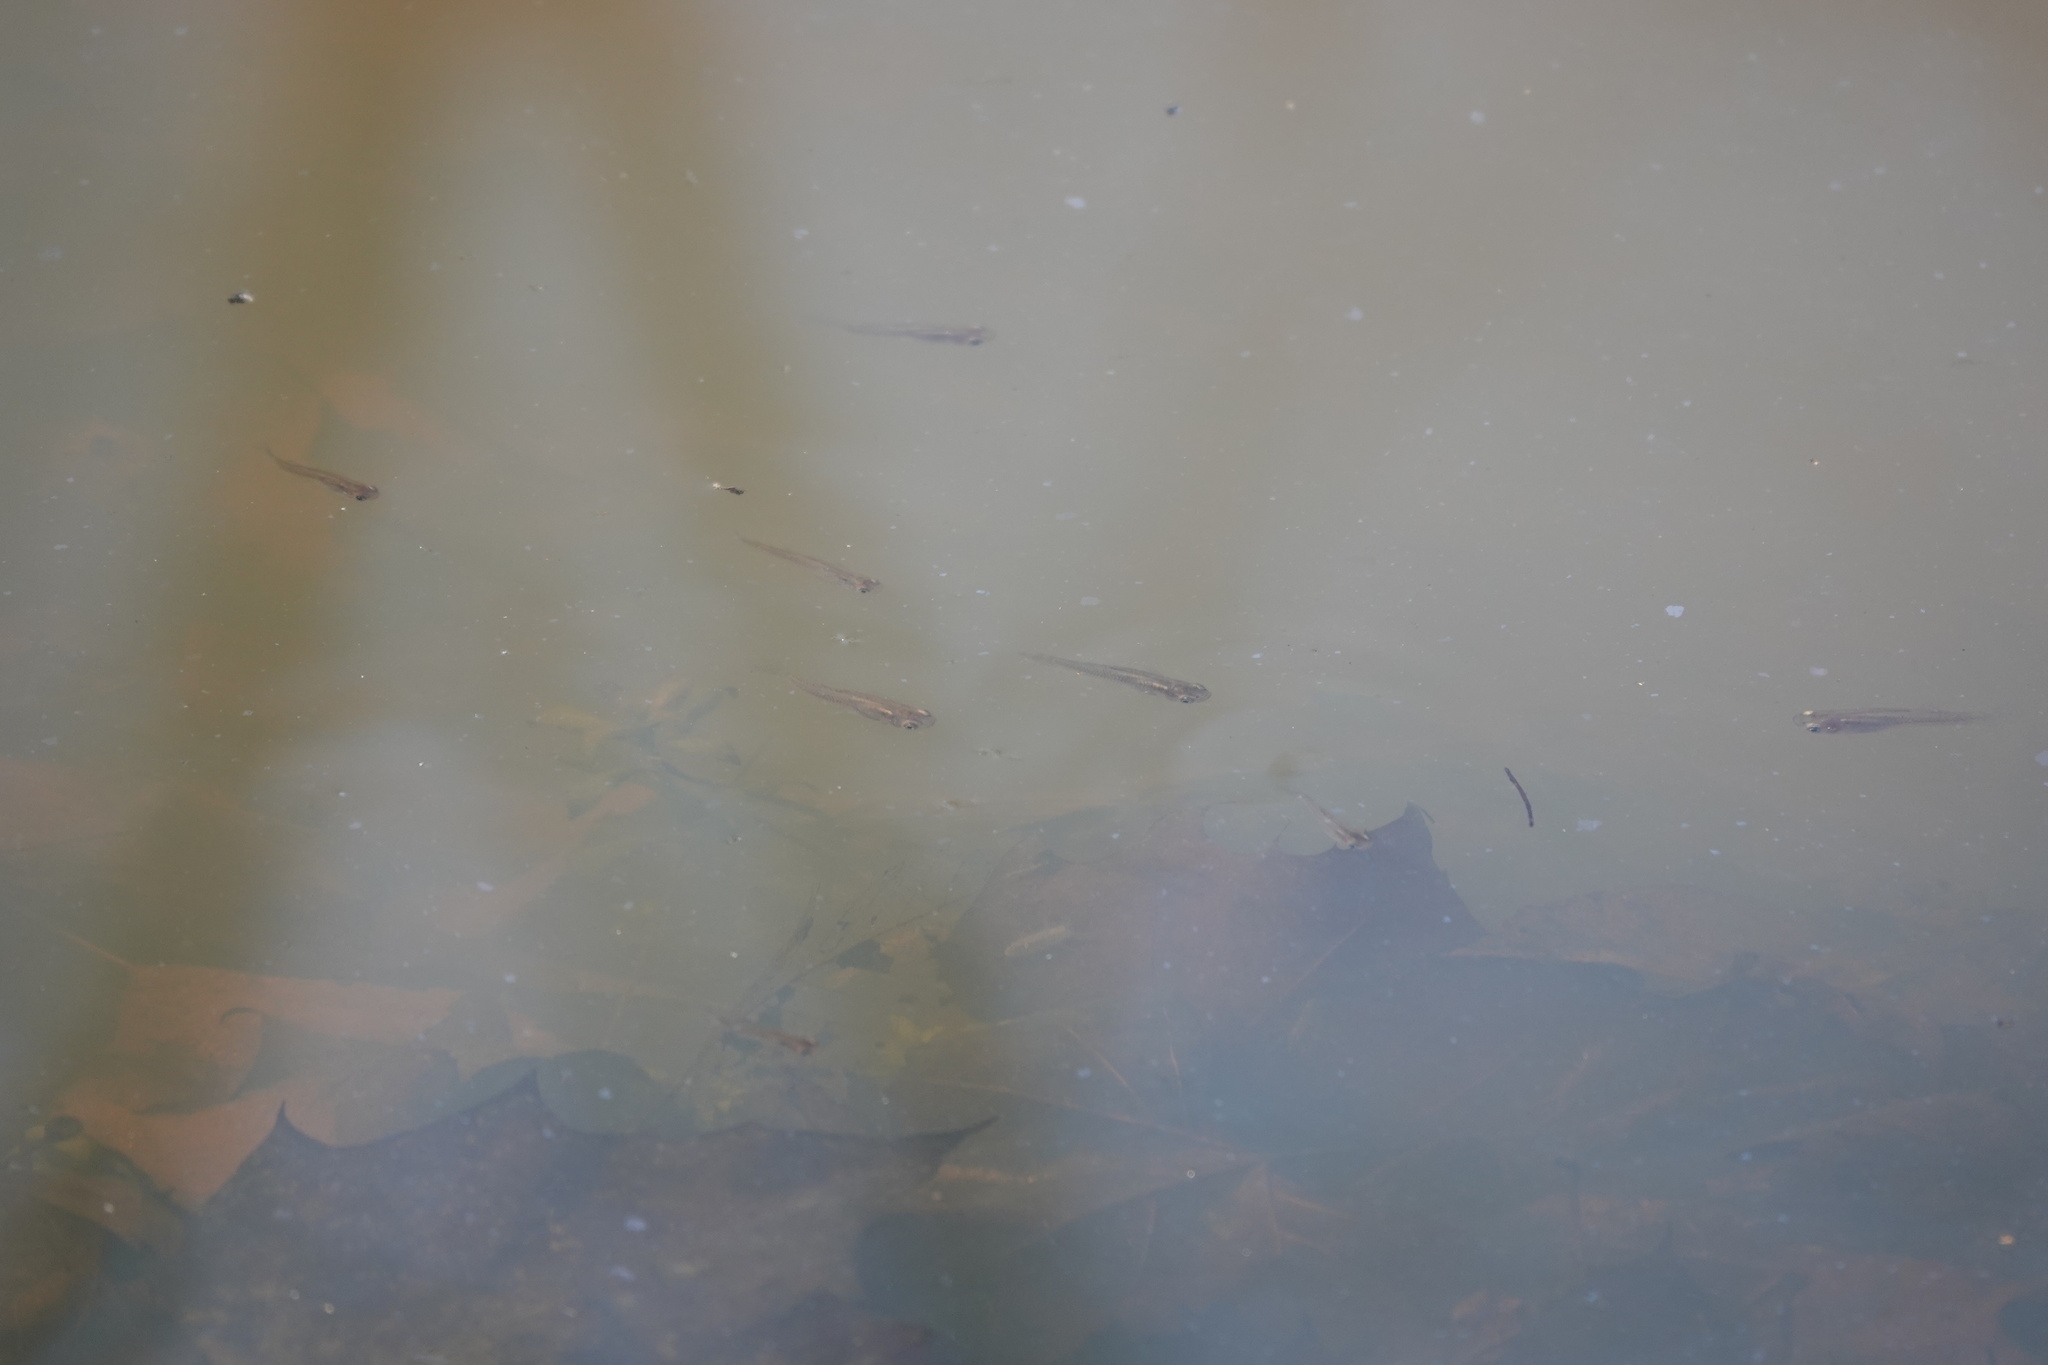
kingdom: Animalia
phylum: Chordata
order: Cyprinodontiformes
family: Poeciliidae
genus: Gambusia
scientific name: Gambusia holbrooki
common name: Eastern mosquitofish
